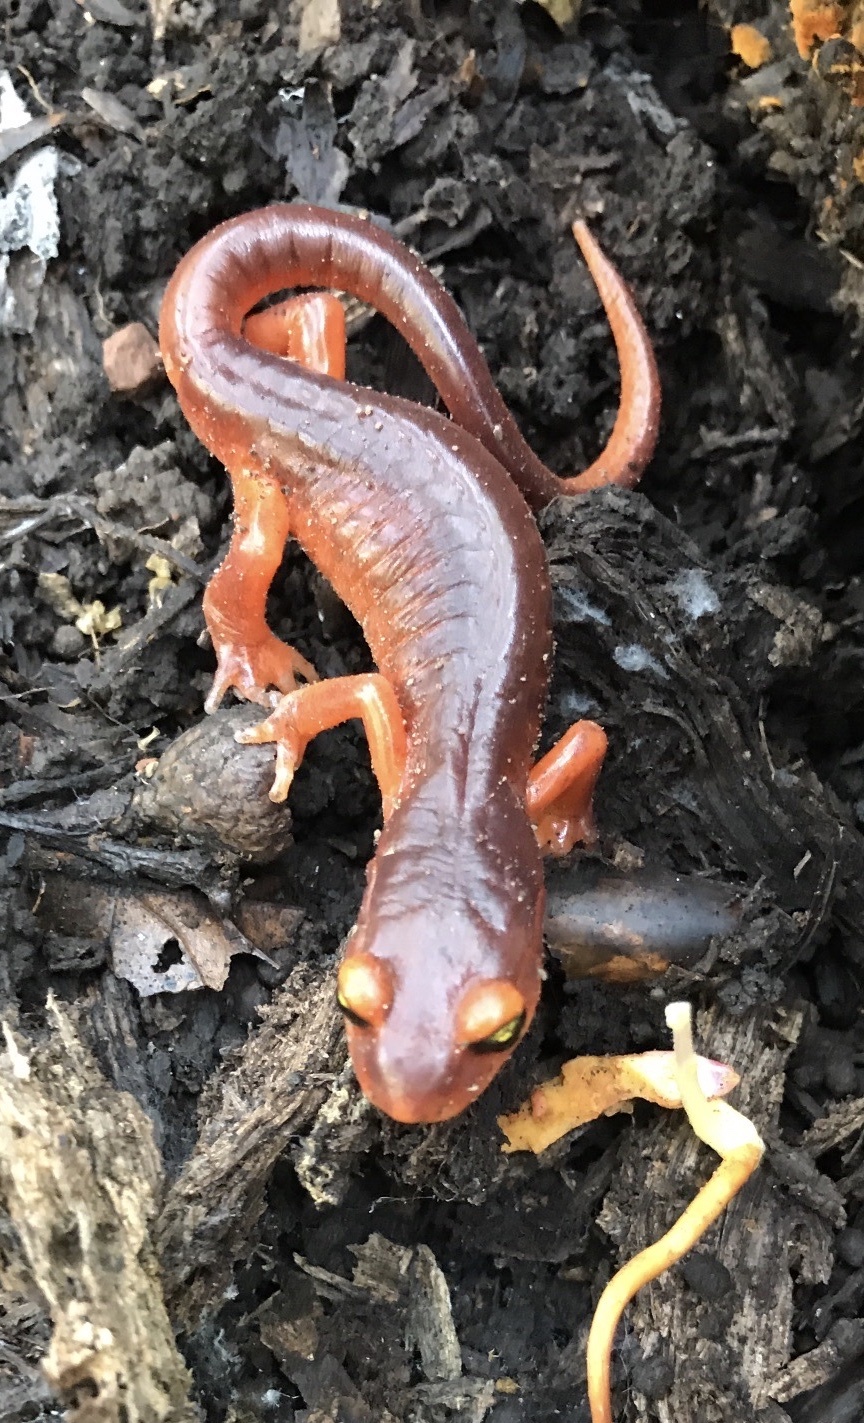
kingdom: Animalia
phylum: Chordata
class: Amphibia
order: Caudata
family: Plethodontidae
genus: Ensatina
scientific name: Ensatina eschscholtzii
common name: Ensatina
